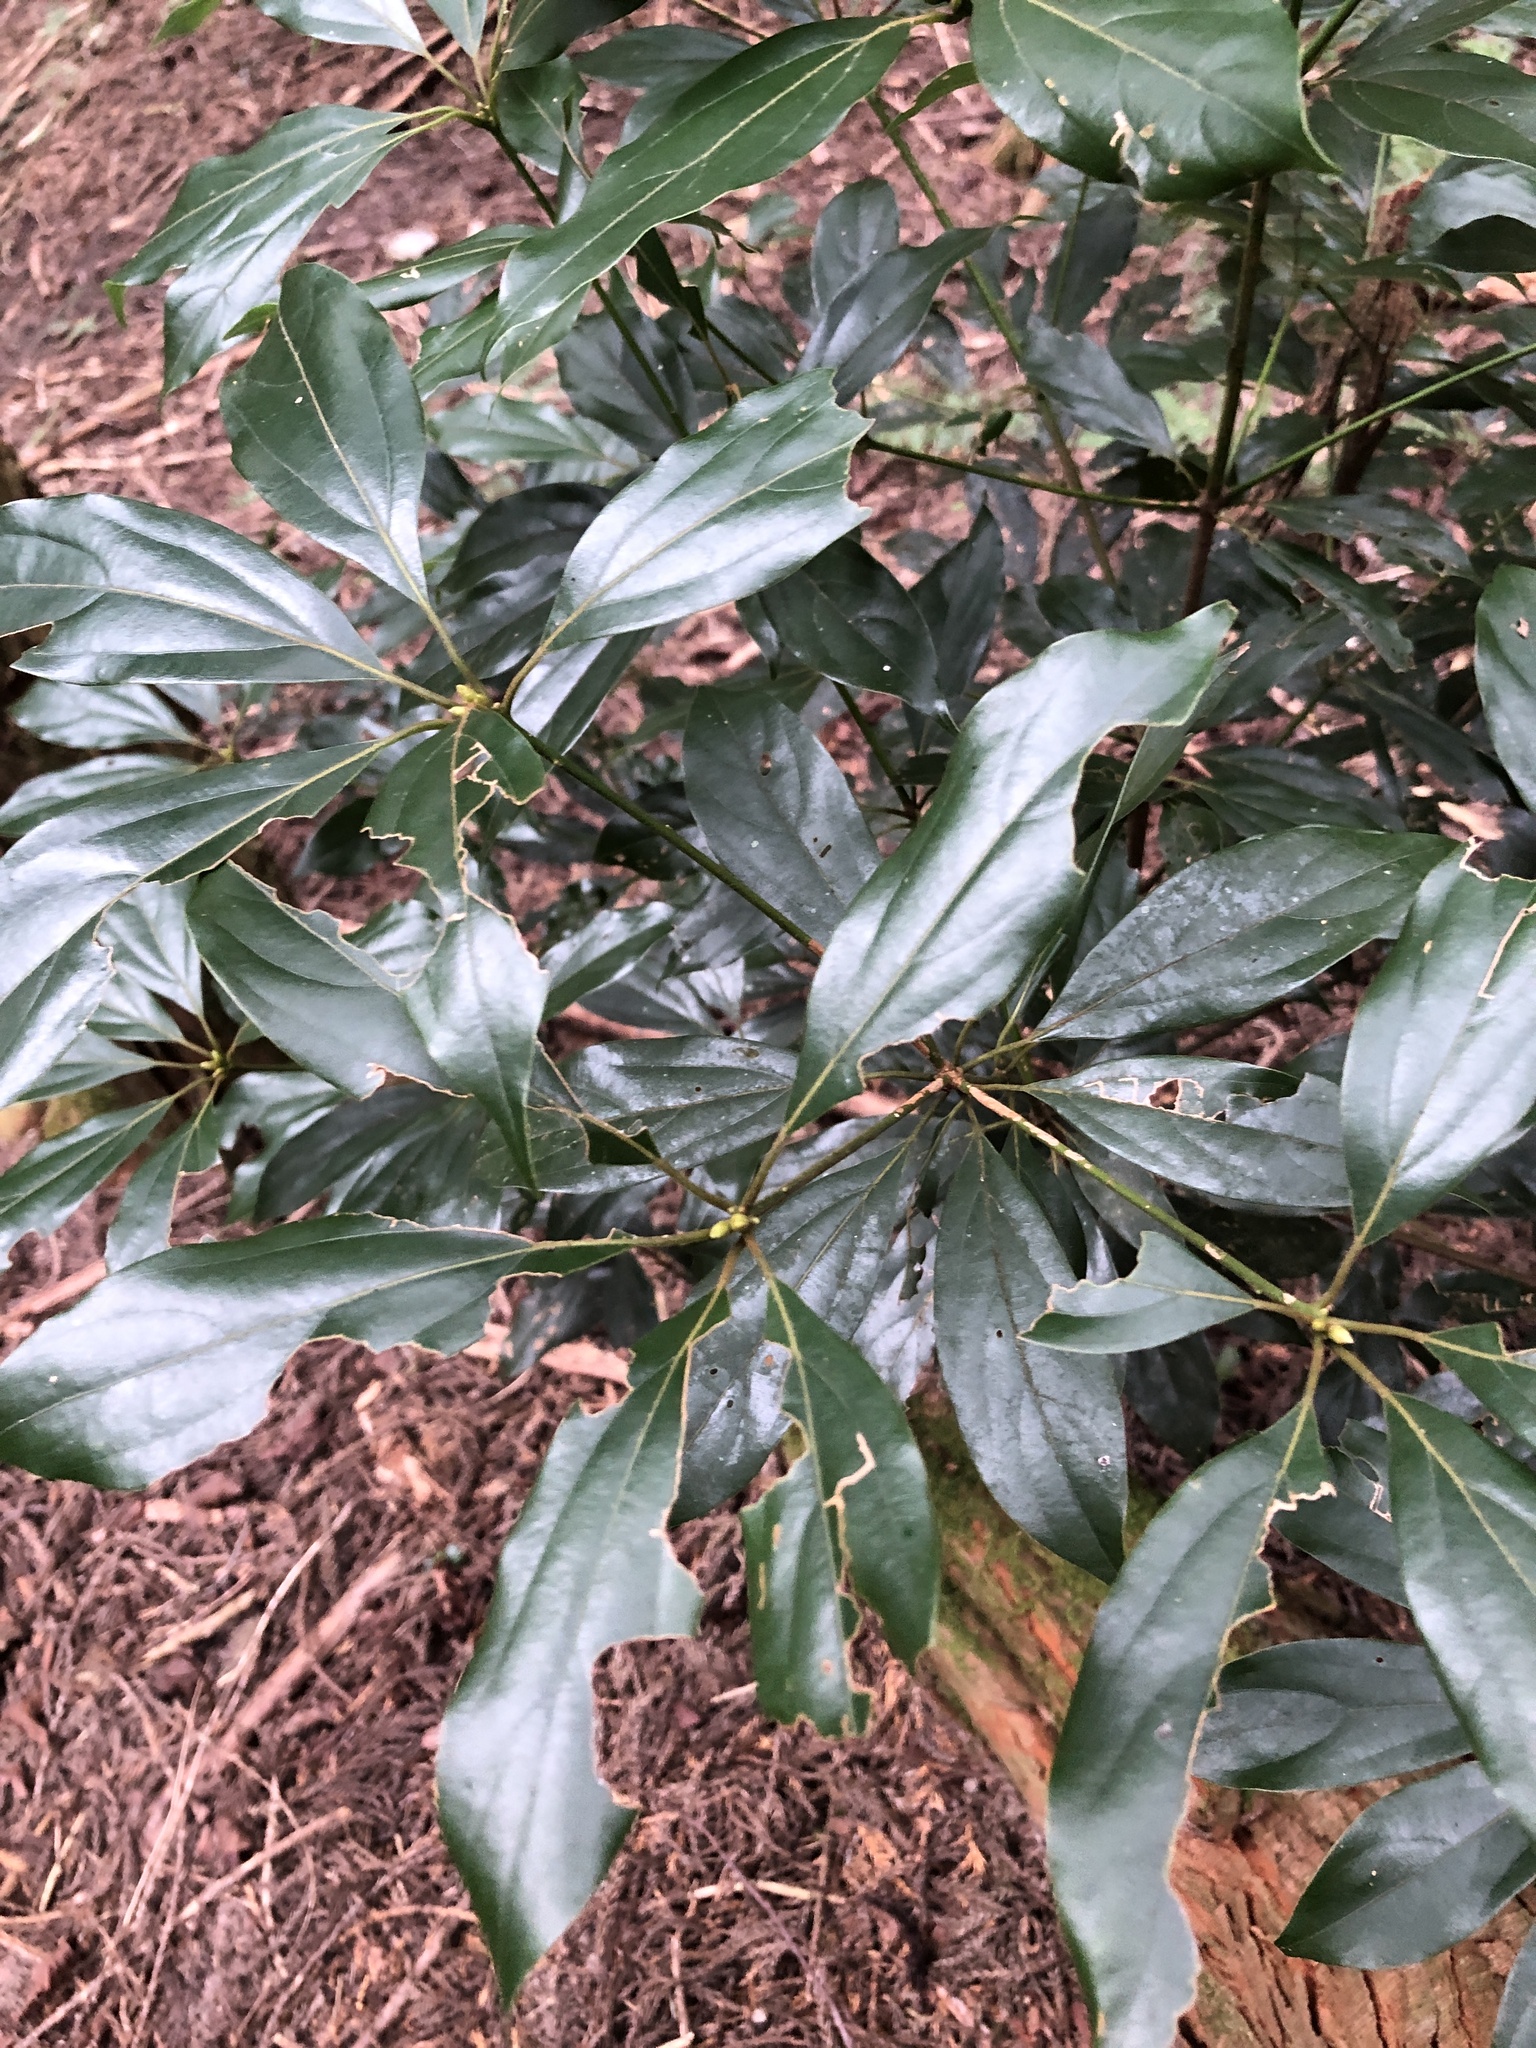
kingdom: Plantae
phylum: Tracheophyta
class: Magnoliopsida
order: Laurales
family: Lauraceae
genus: Neolitsea
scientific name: Neolitsea variabillima
